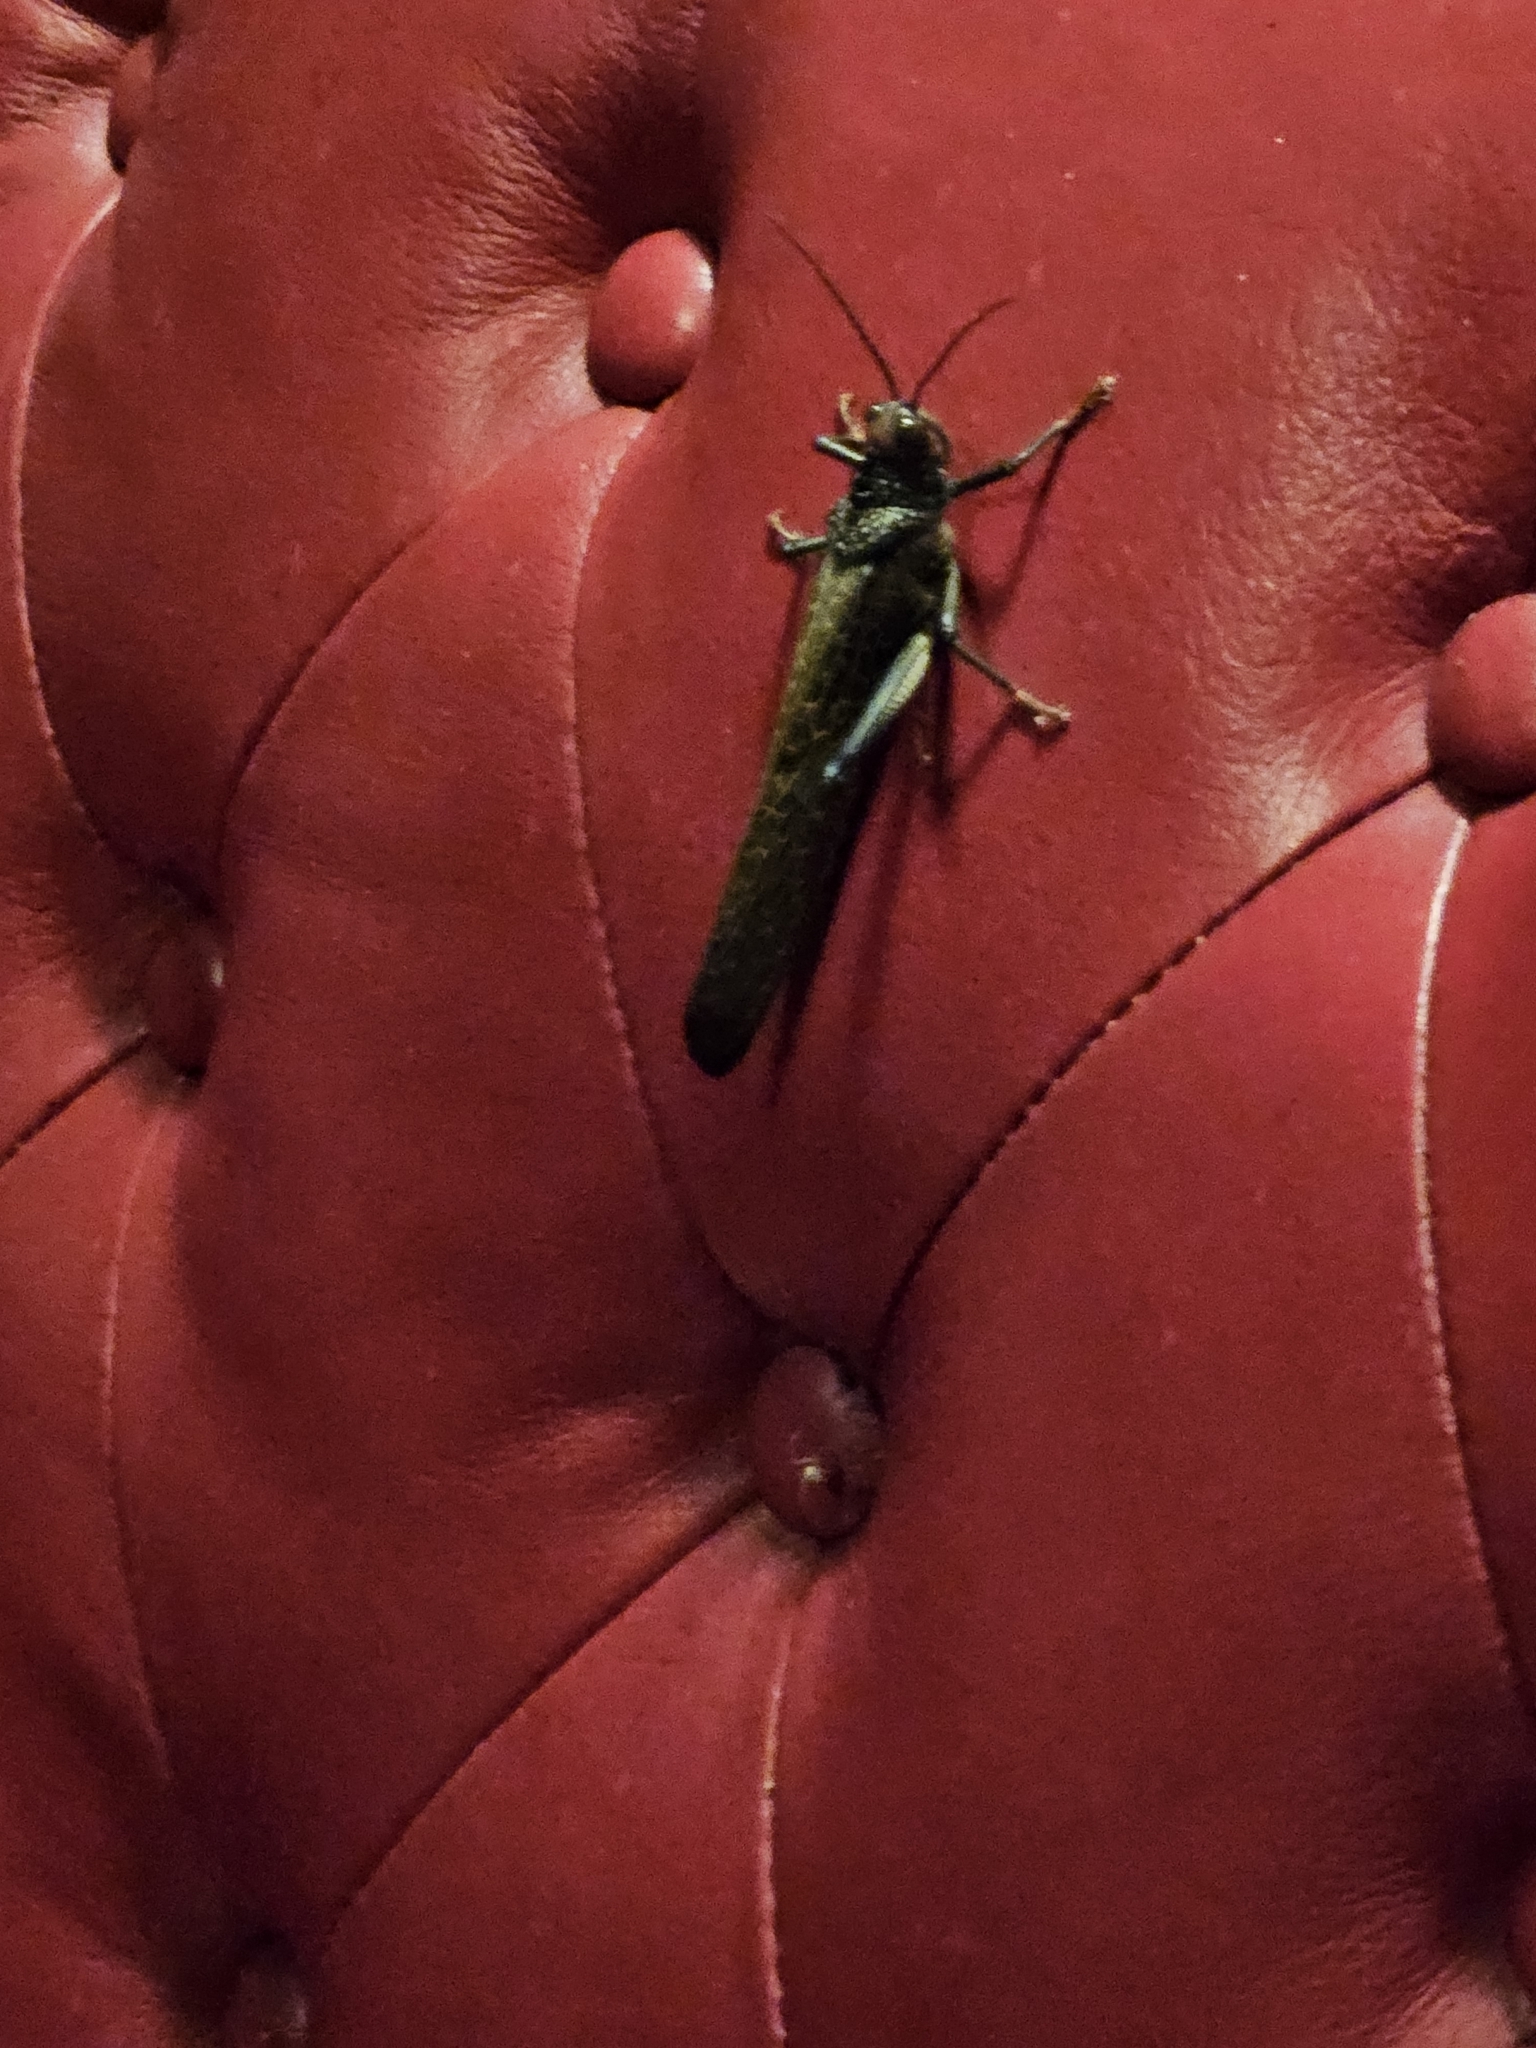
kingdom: Animalia
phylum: Arthropoda
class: Insecta
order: Orthoptera
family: Romaleidae
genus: Tropidacris
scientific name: Tropidacris cristata
